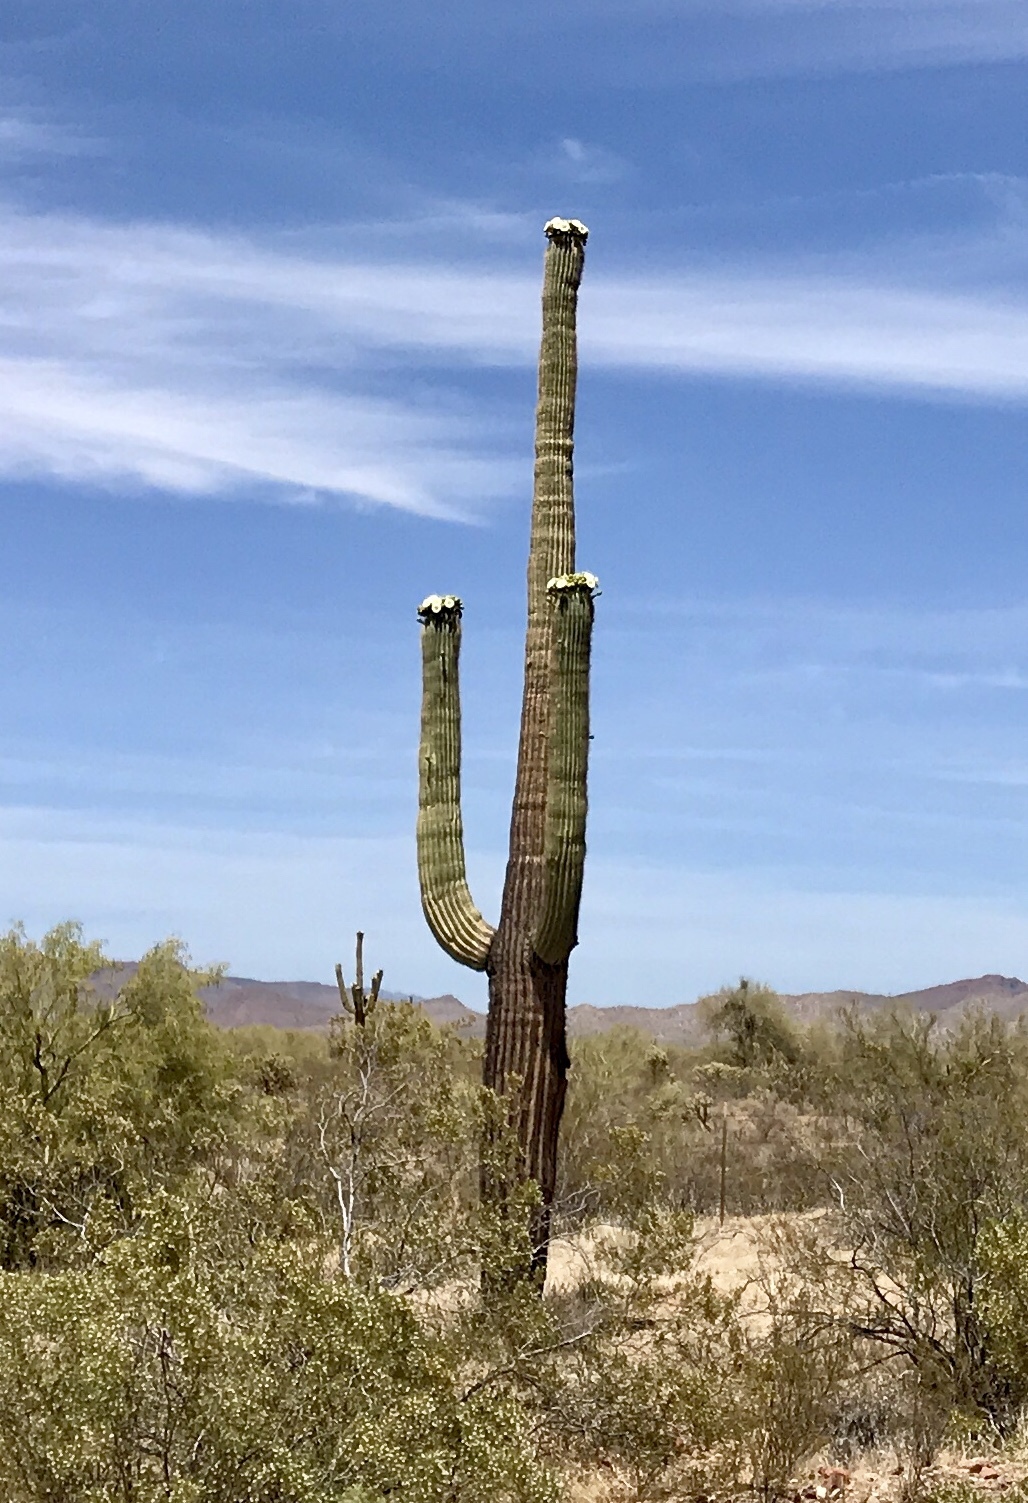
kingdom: Plantae
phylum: Tracheophyta
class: Magnoliopsida
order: Caryophyllales
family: Cactaceae
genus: Carnegiea
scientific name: Carnegiea gigantea
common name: Saguaro
